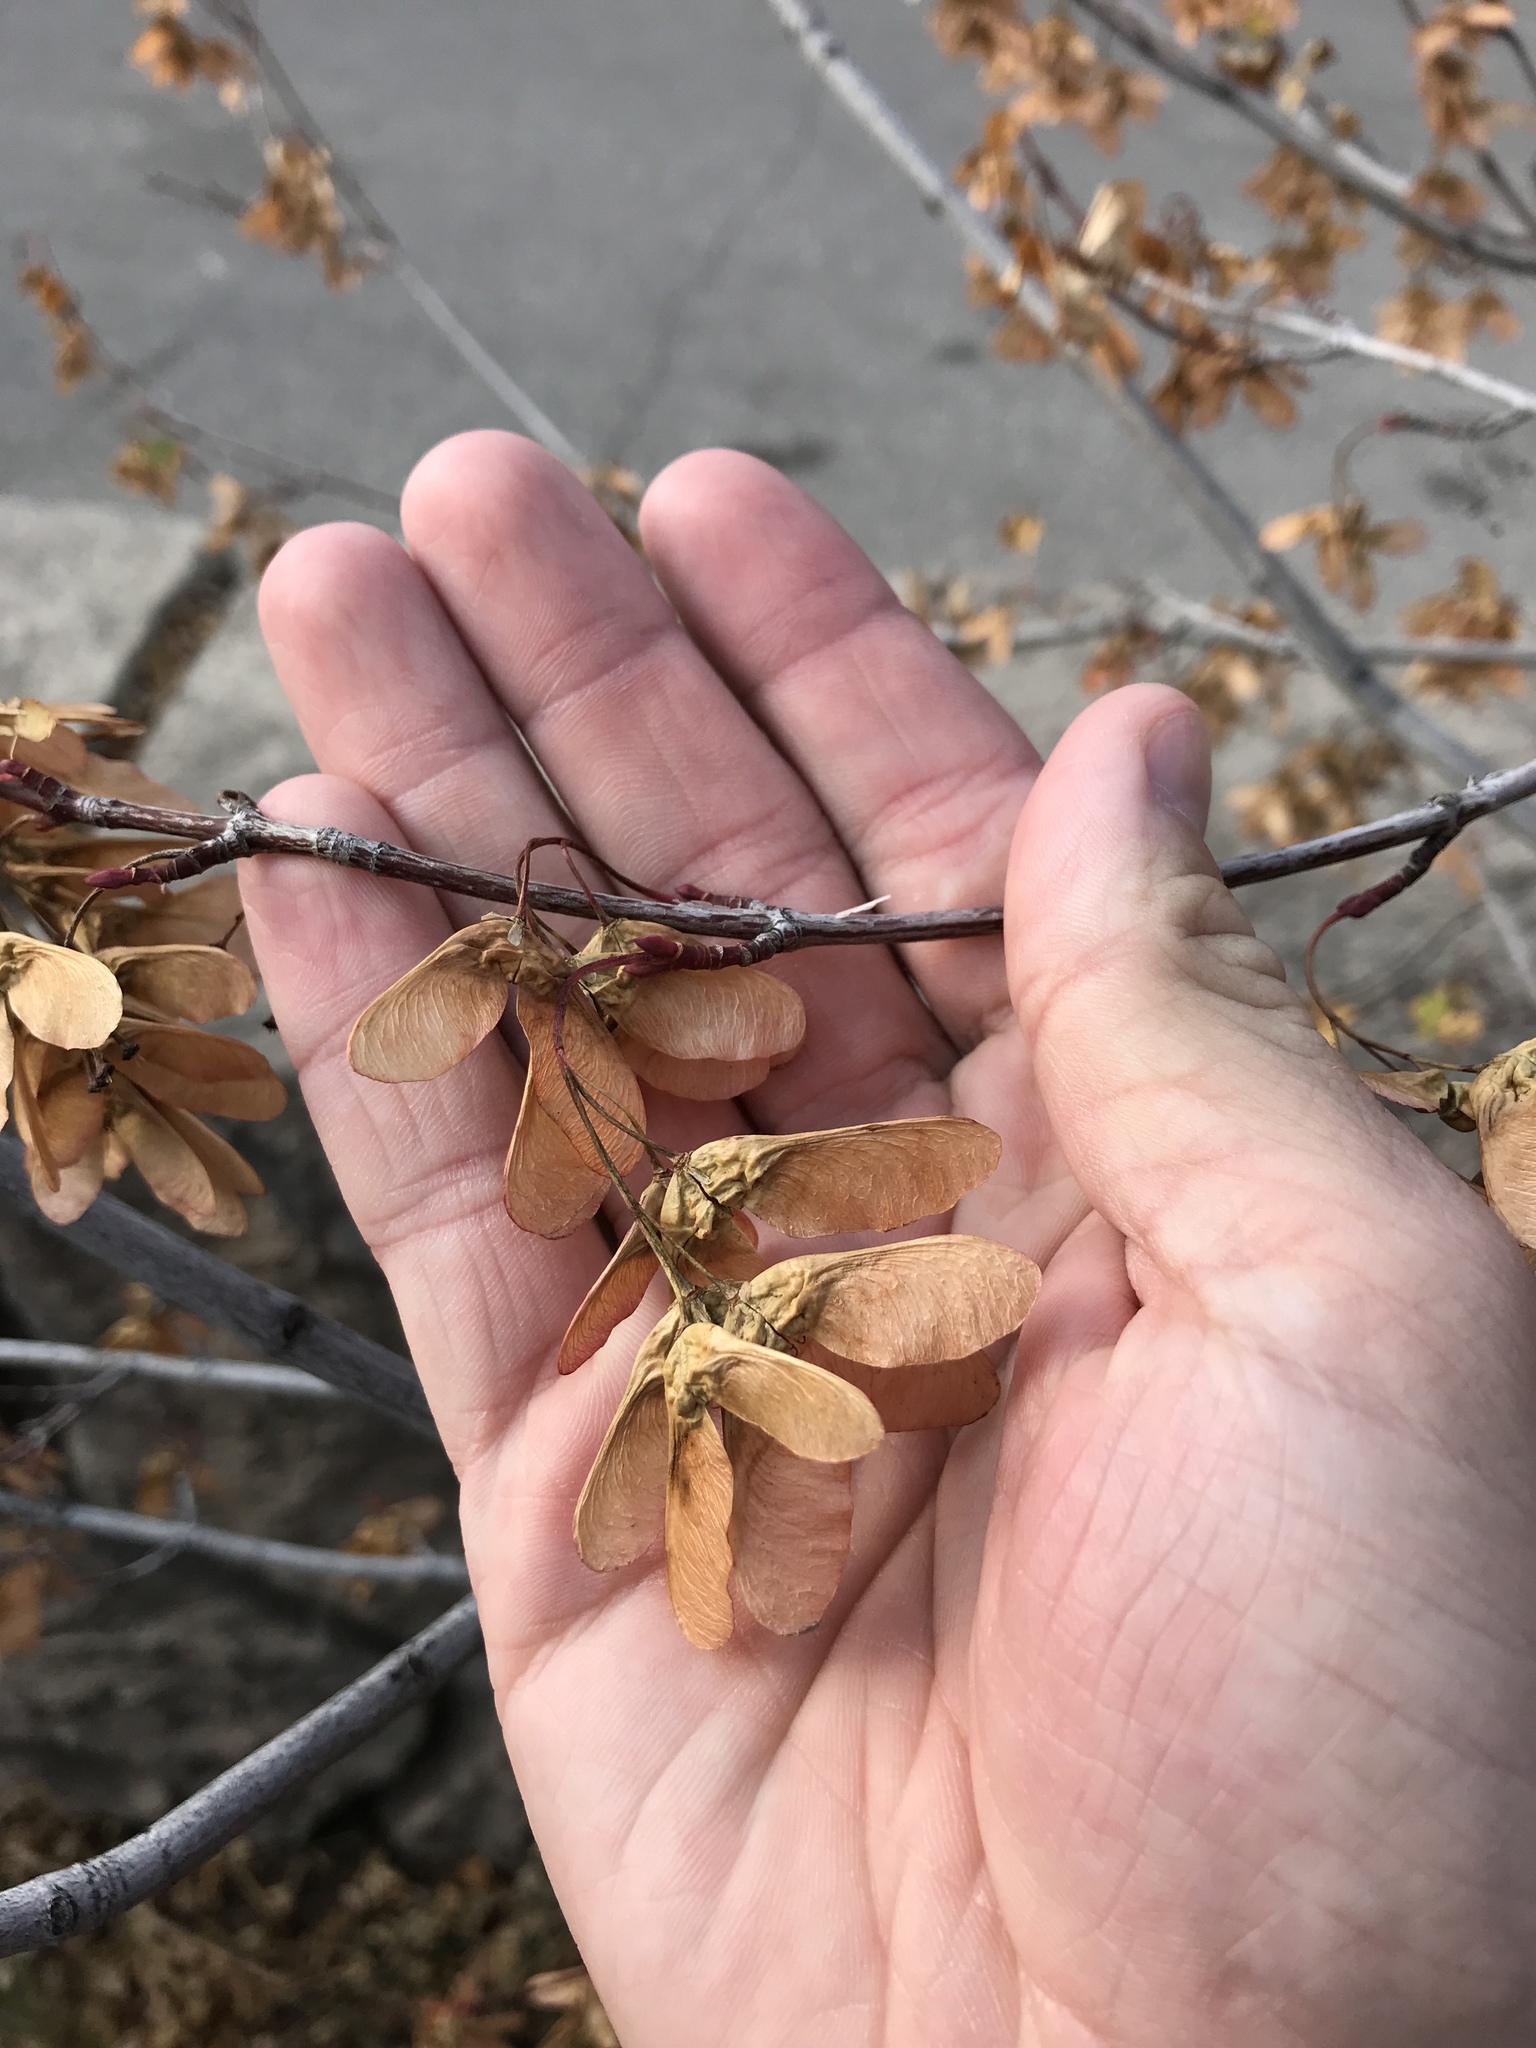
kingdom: Plantae
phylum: Tracheophyta
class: Magnoliopsida
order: Sapindales
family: Sapindaceae
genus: Acer
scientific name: Acer glabrum
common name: Rocky mountain maple
